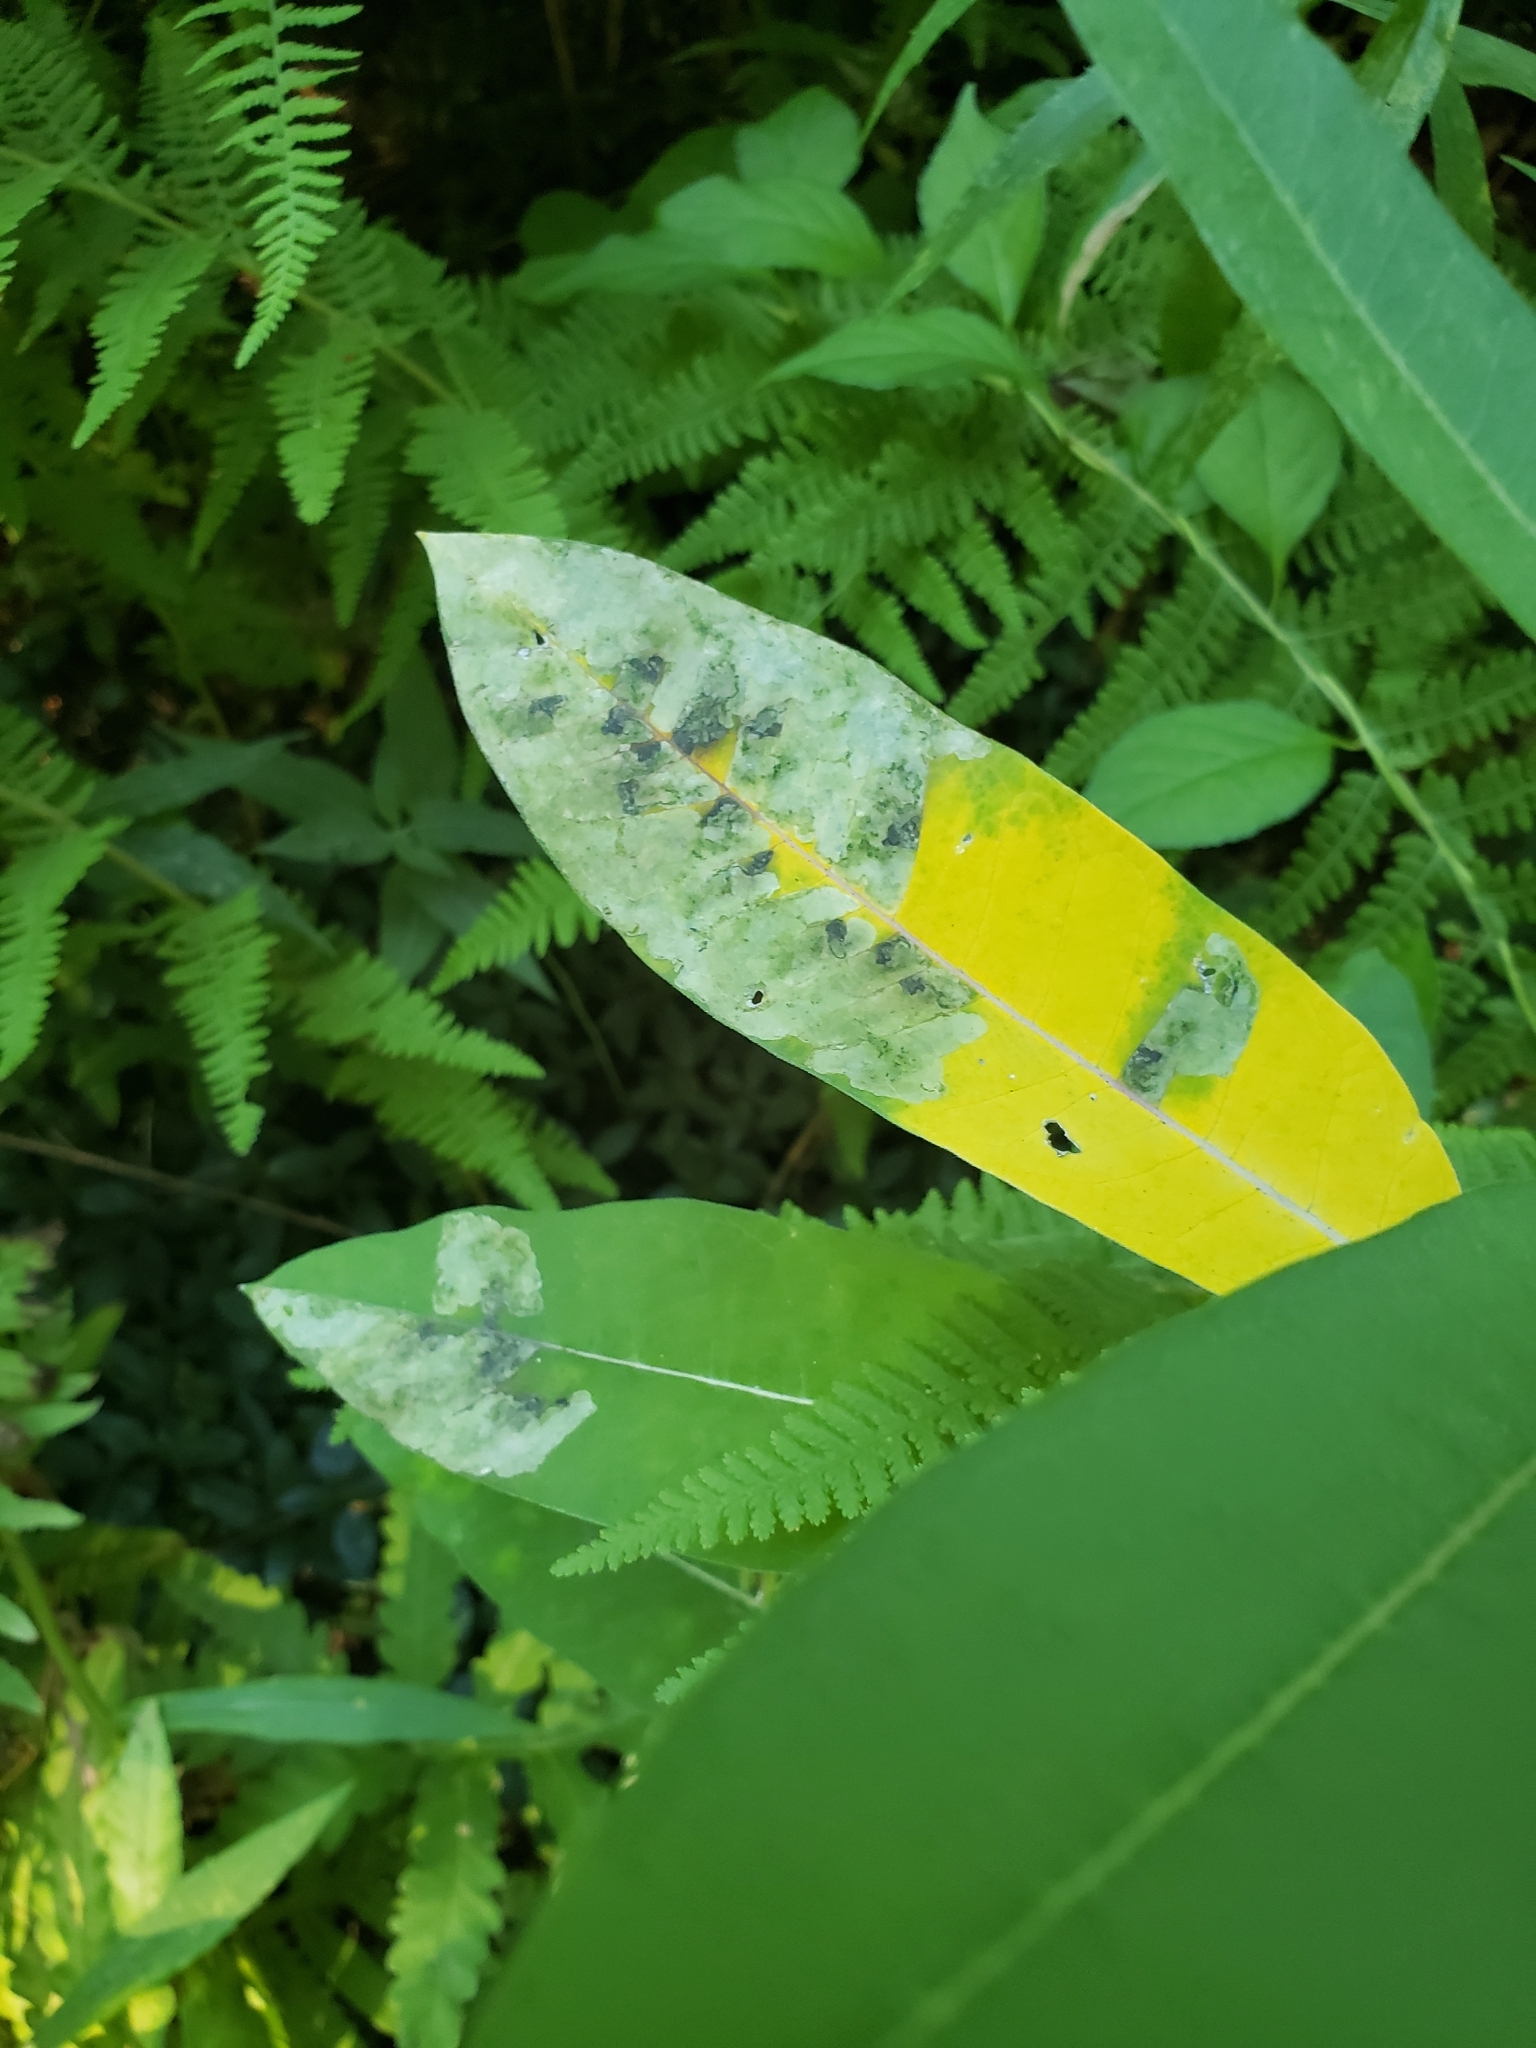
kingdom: Animalia
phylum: Arthropoda
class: Insecta
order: Diptera
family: Agromyzidae
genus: Liriomyza
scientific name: Liriomyza asclepiadis
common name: Milkweed leaf-miner fly
